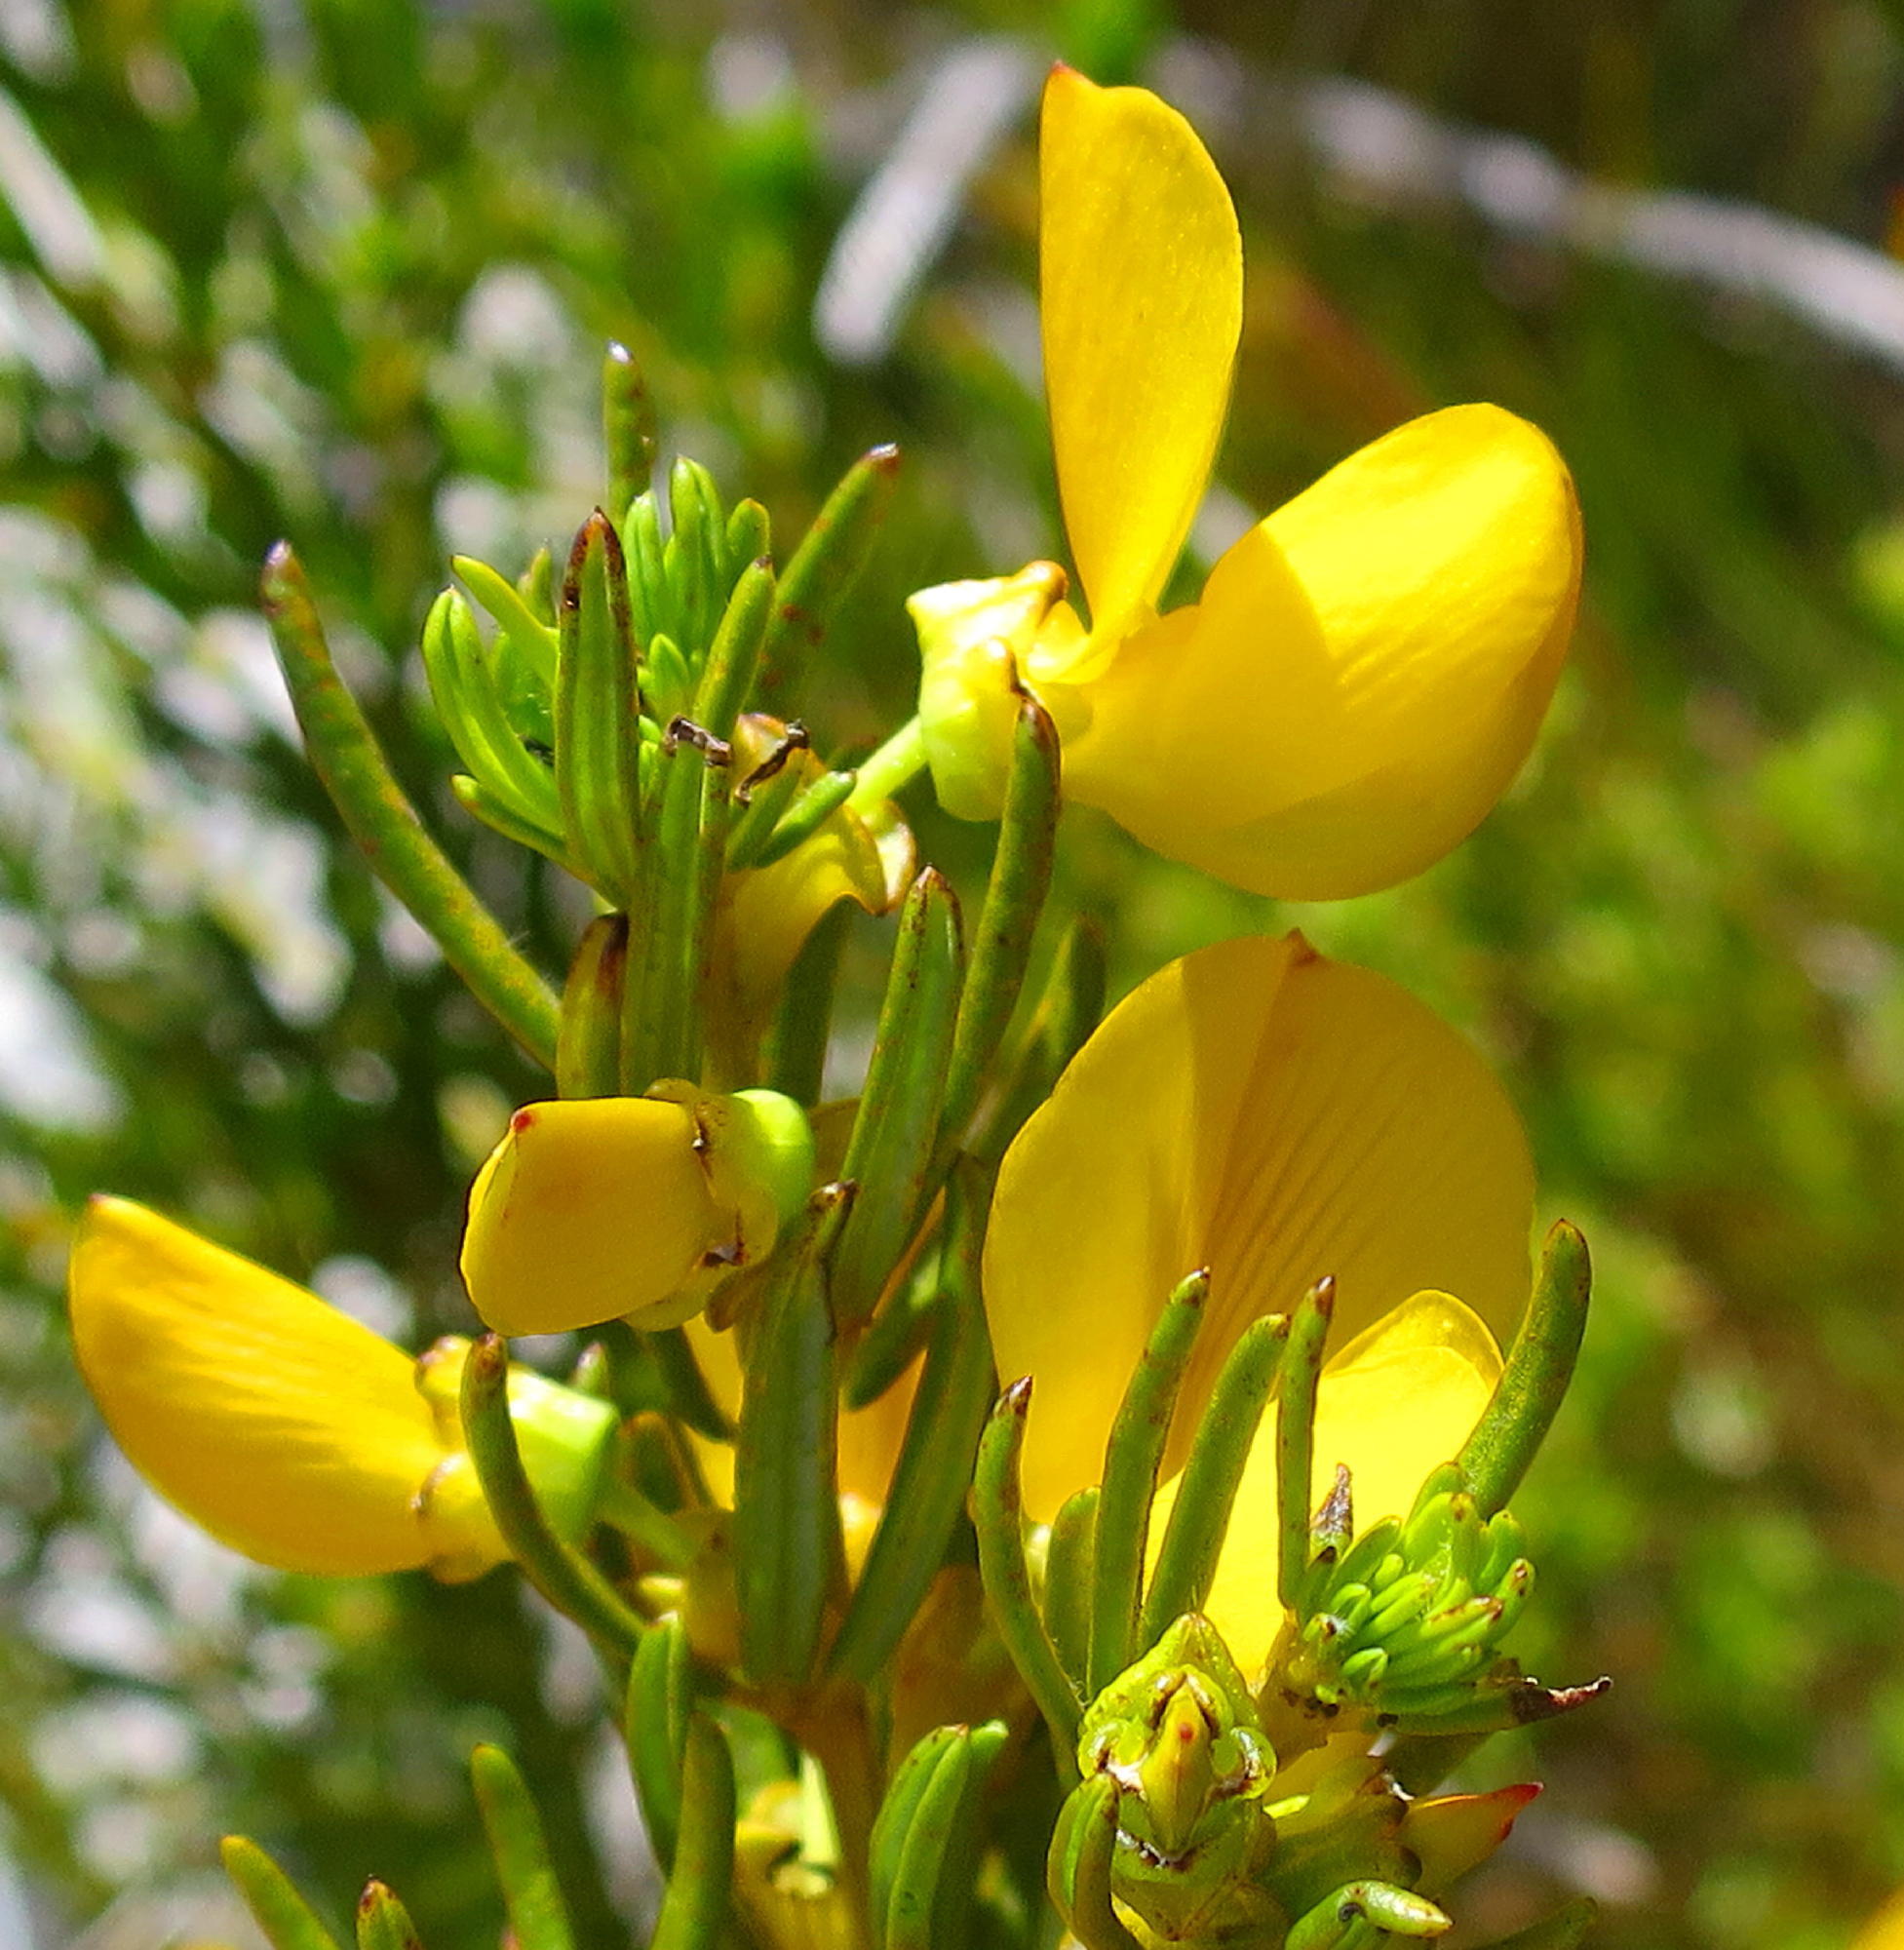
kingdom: Plantae
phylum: Tracheophyta
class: Magnoliopsida
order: Fabales
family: Fabaceae
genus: Cyclopia
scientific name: Cyclopia plicata
